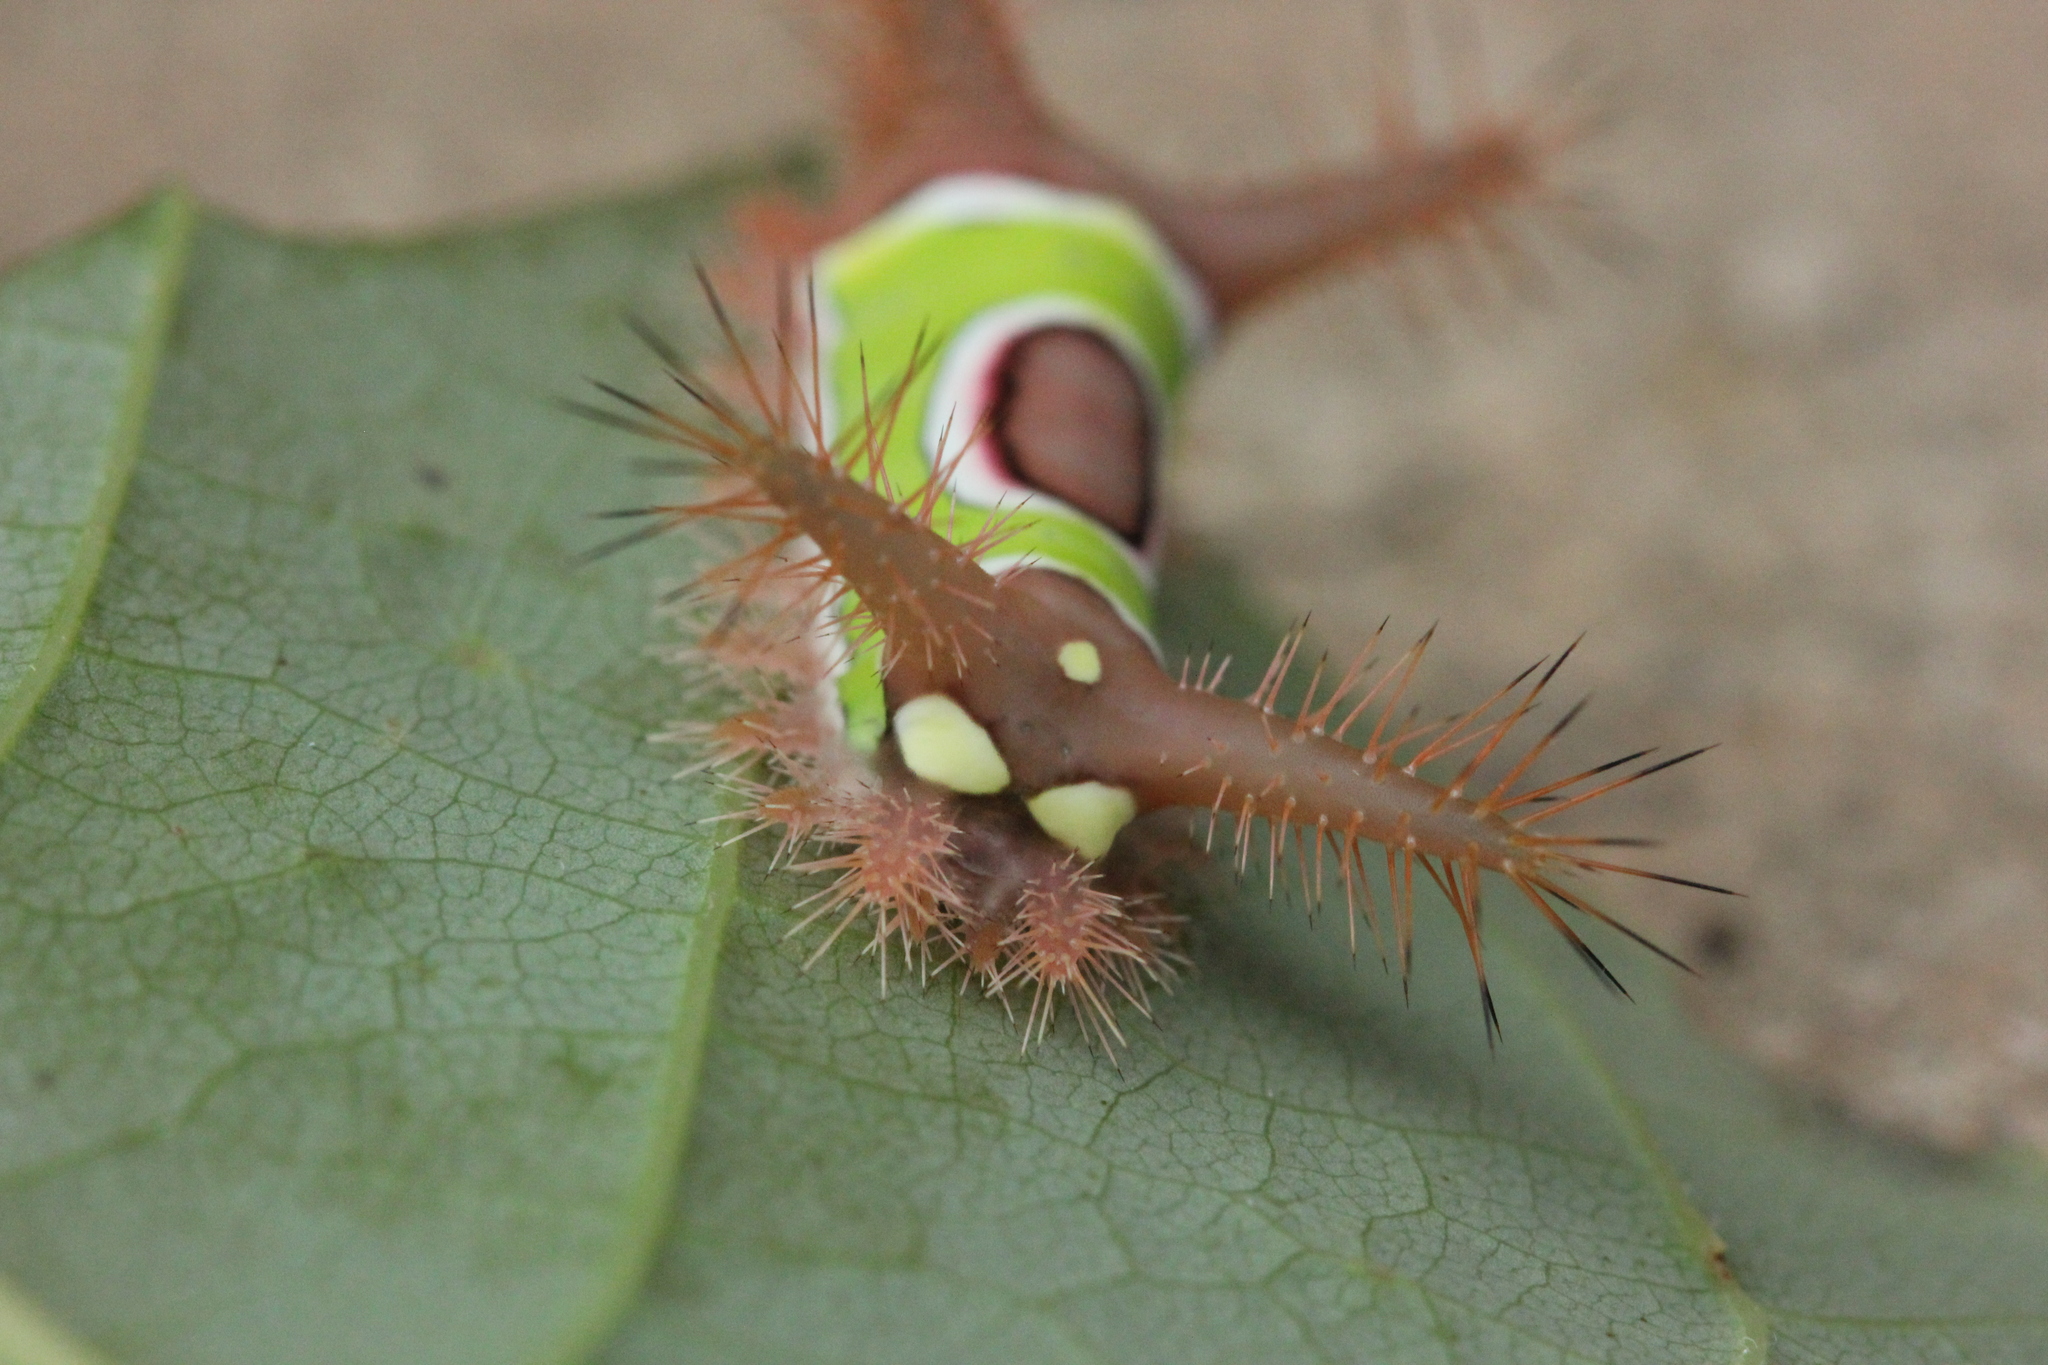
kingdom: Animalia
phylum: Arthropoda
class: Insecta
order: Lepidoptera
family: Limacodidae
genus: Acharia
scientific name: Acharia stimulea
